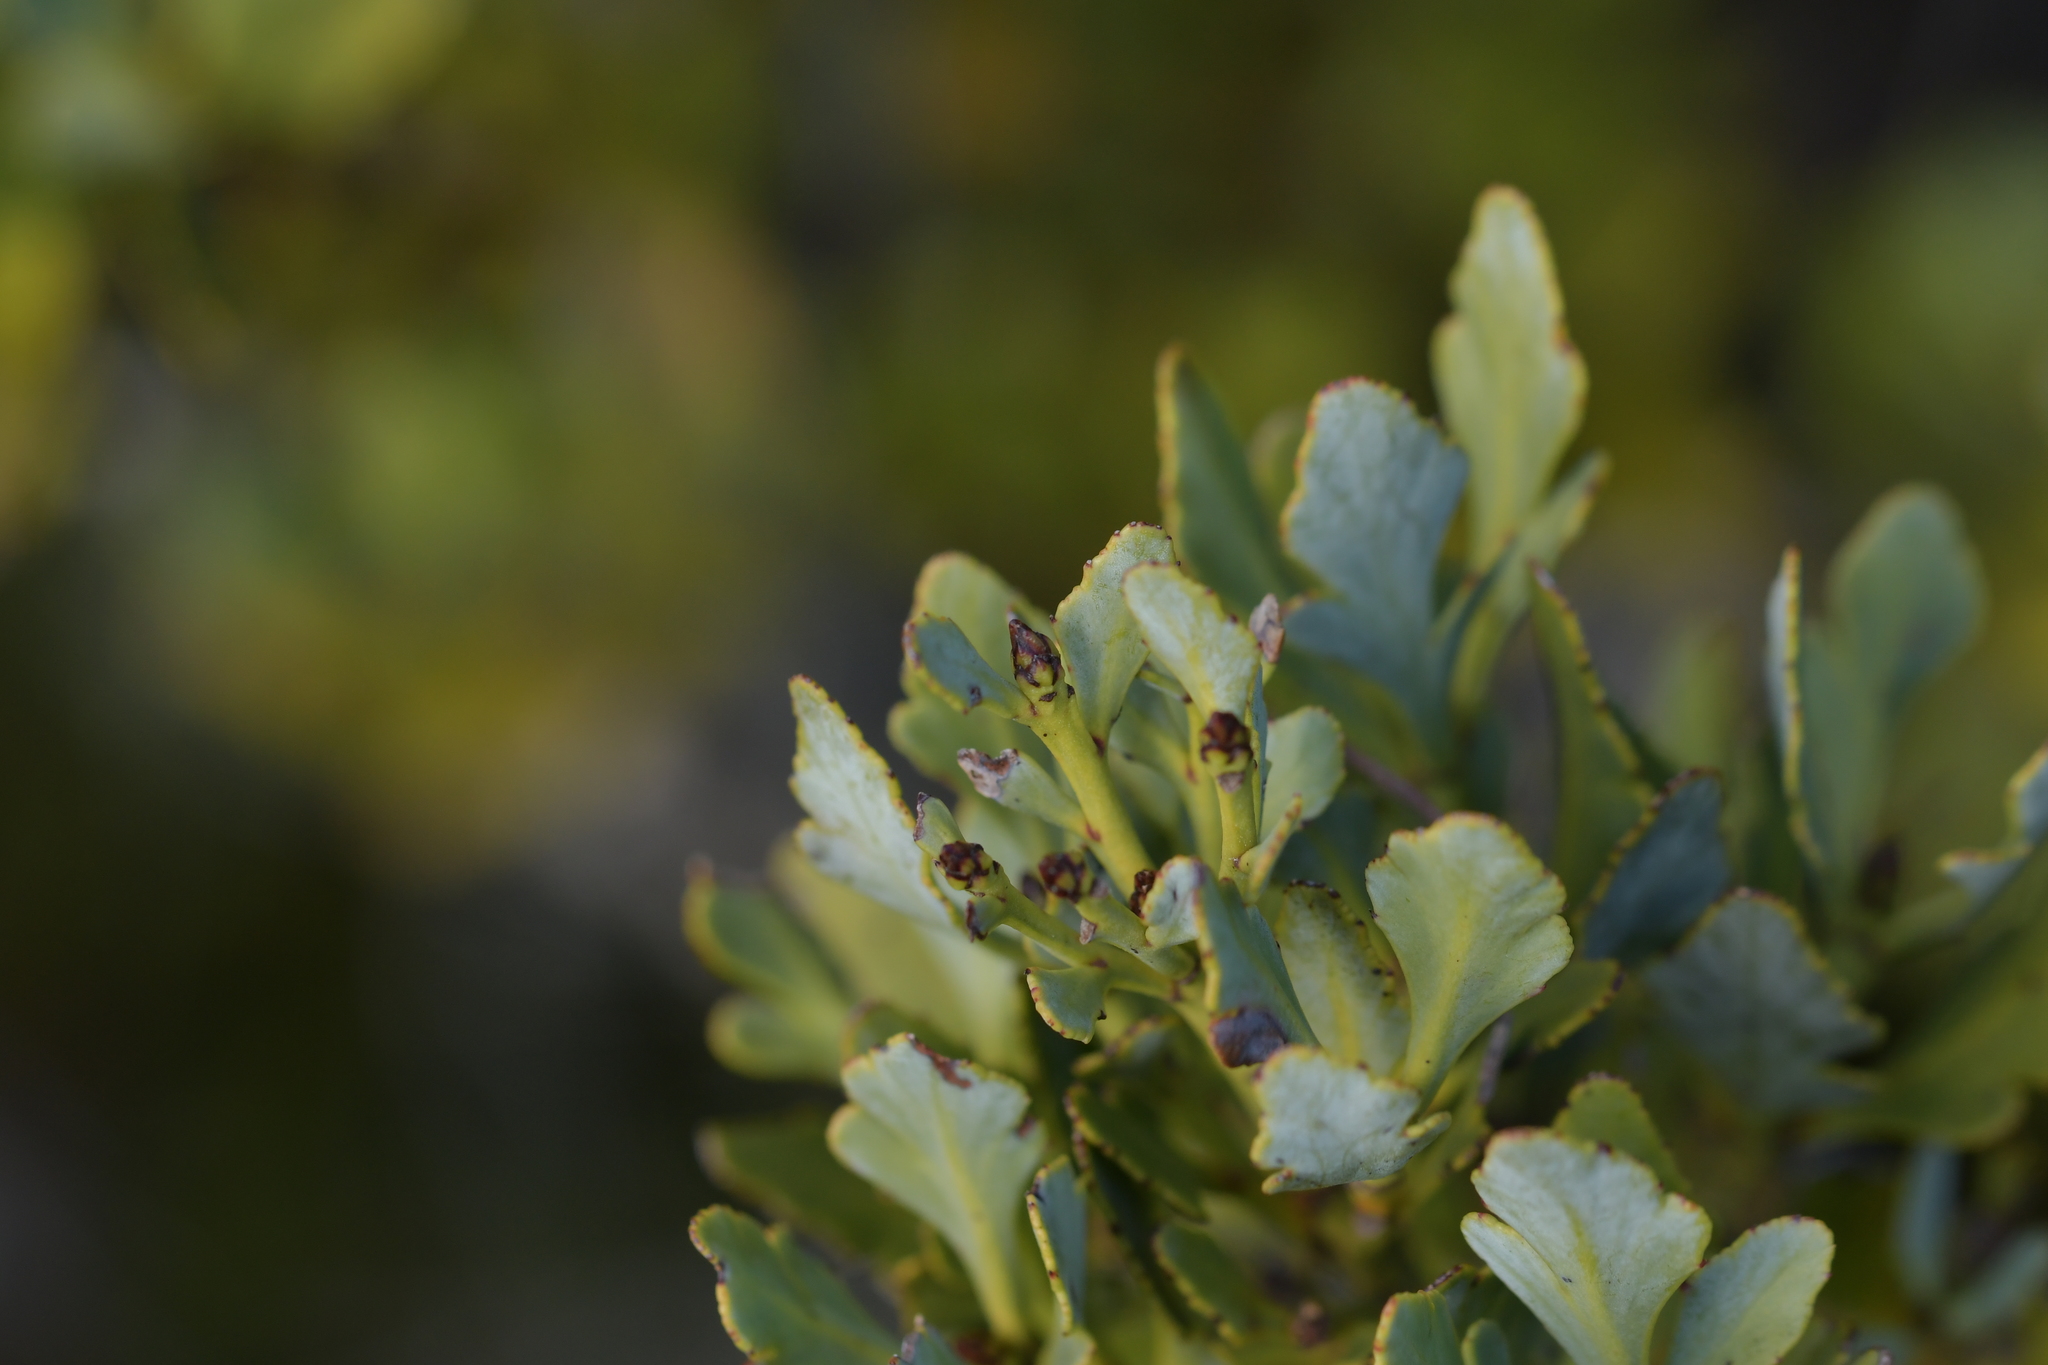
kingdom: Plantae
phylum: Tracheophyta
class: Pinopsida
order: Pinales
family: Phyllocladaceae
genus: Phyllocladus
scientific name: Phyllocladus trichomanoides
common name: Celery pine
